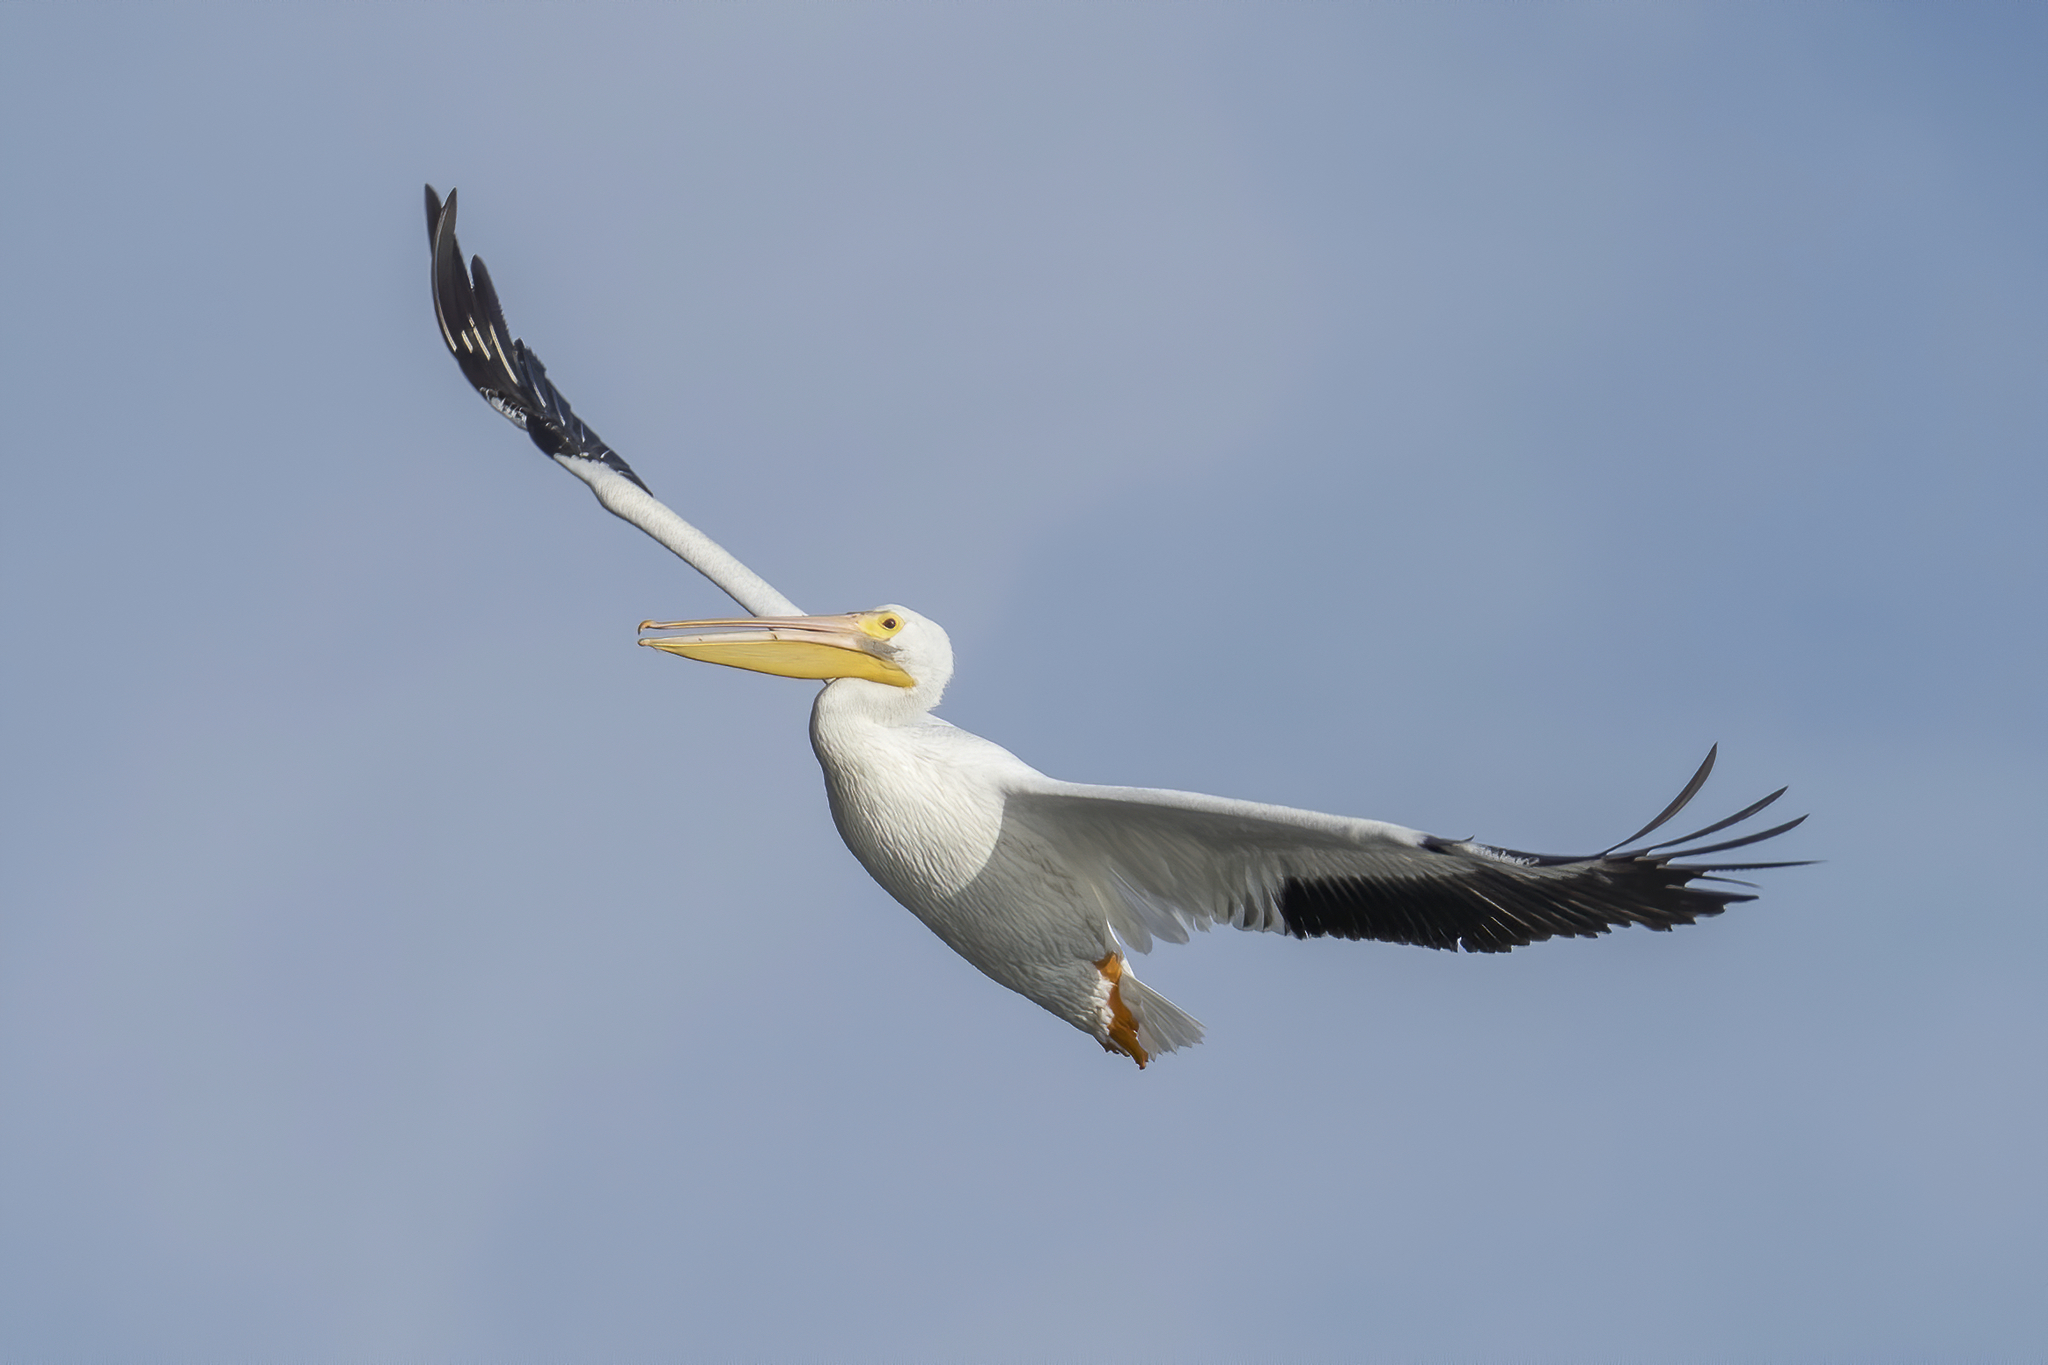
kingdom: Animalia
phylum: Chordata
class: Aves
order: Pelecaniformes
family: Pelecanidae
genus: Pelecanus
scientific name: Pelecanus erythrorhynchos
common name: American white pelican
